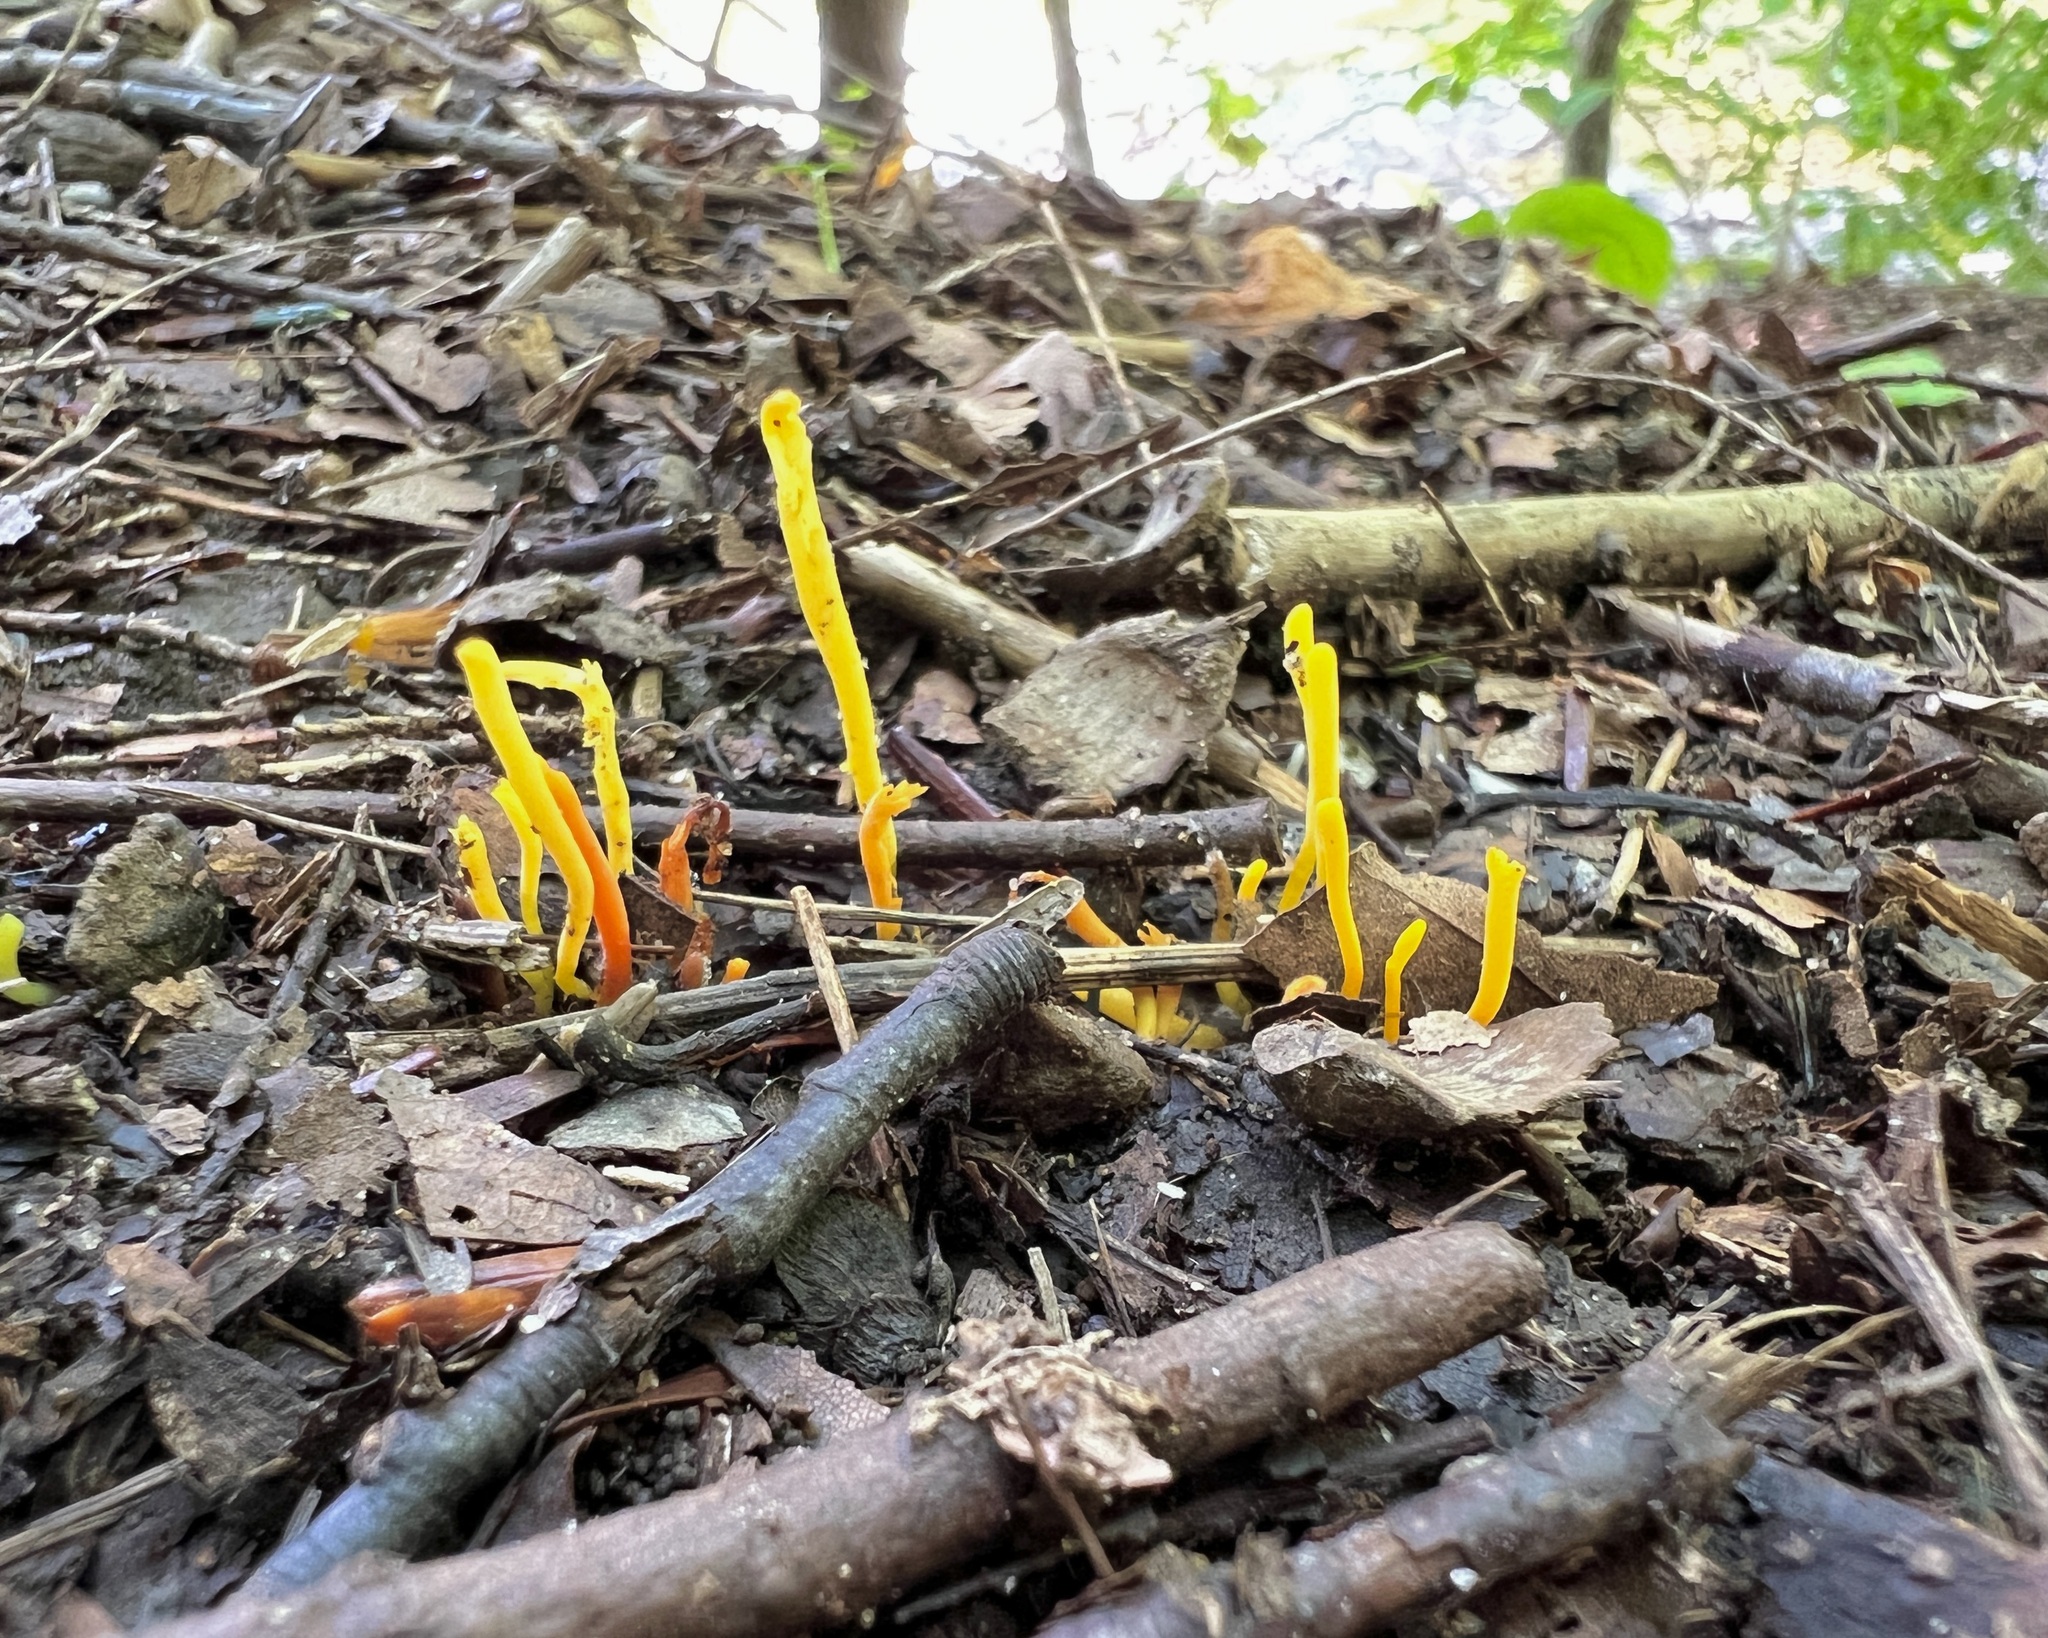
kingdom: Fungi
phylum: Basidiomycota
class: Agaricomycetes
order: Agaricales
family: Clavariaceae
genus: Clavulinopsis
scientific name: Clavulinopsis laeticolor
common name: Handsome club
